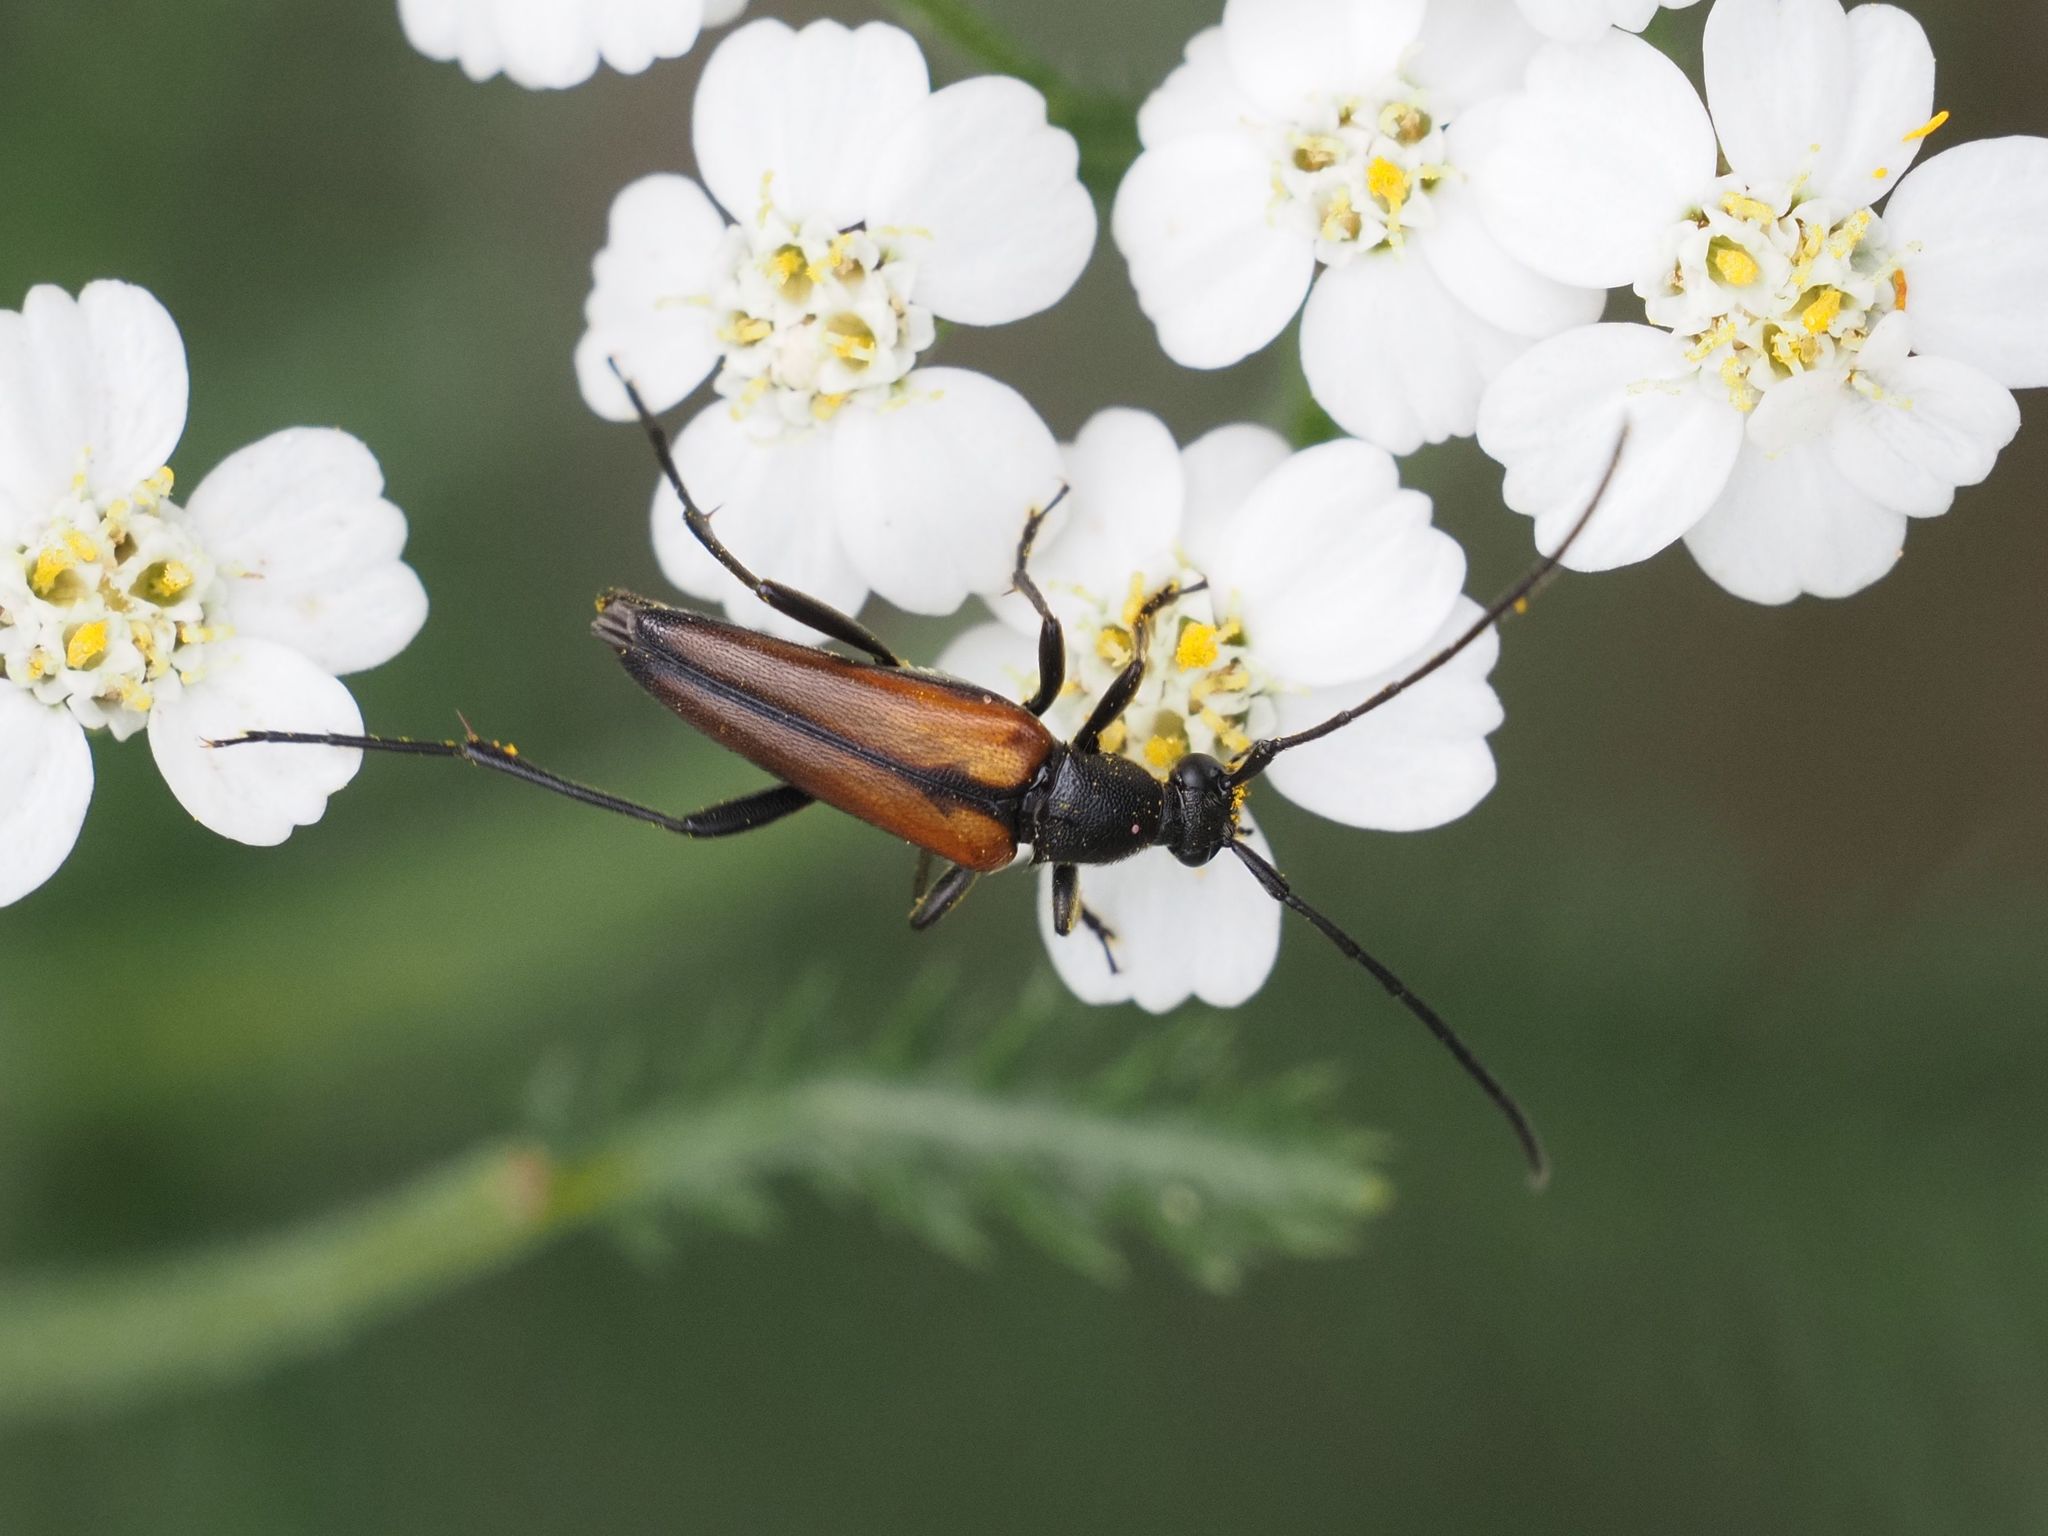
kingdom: Animalia
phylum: Arthropoda
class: Insecta
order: Coleoptera
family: Cerambycidae
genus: Stenurella
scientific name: Stenurella melanura
